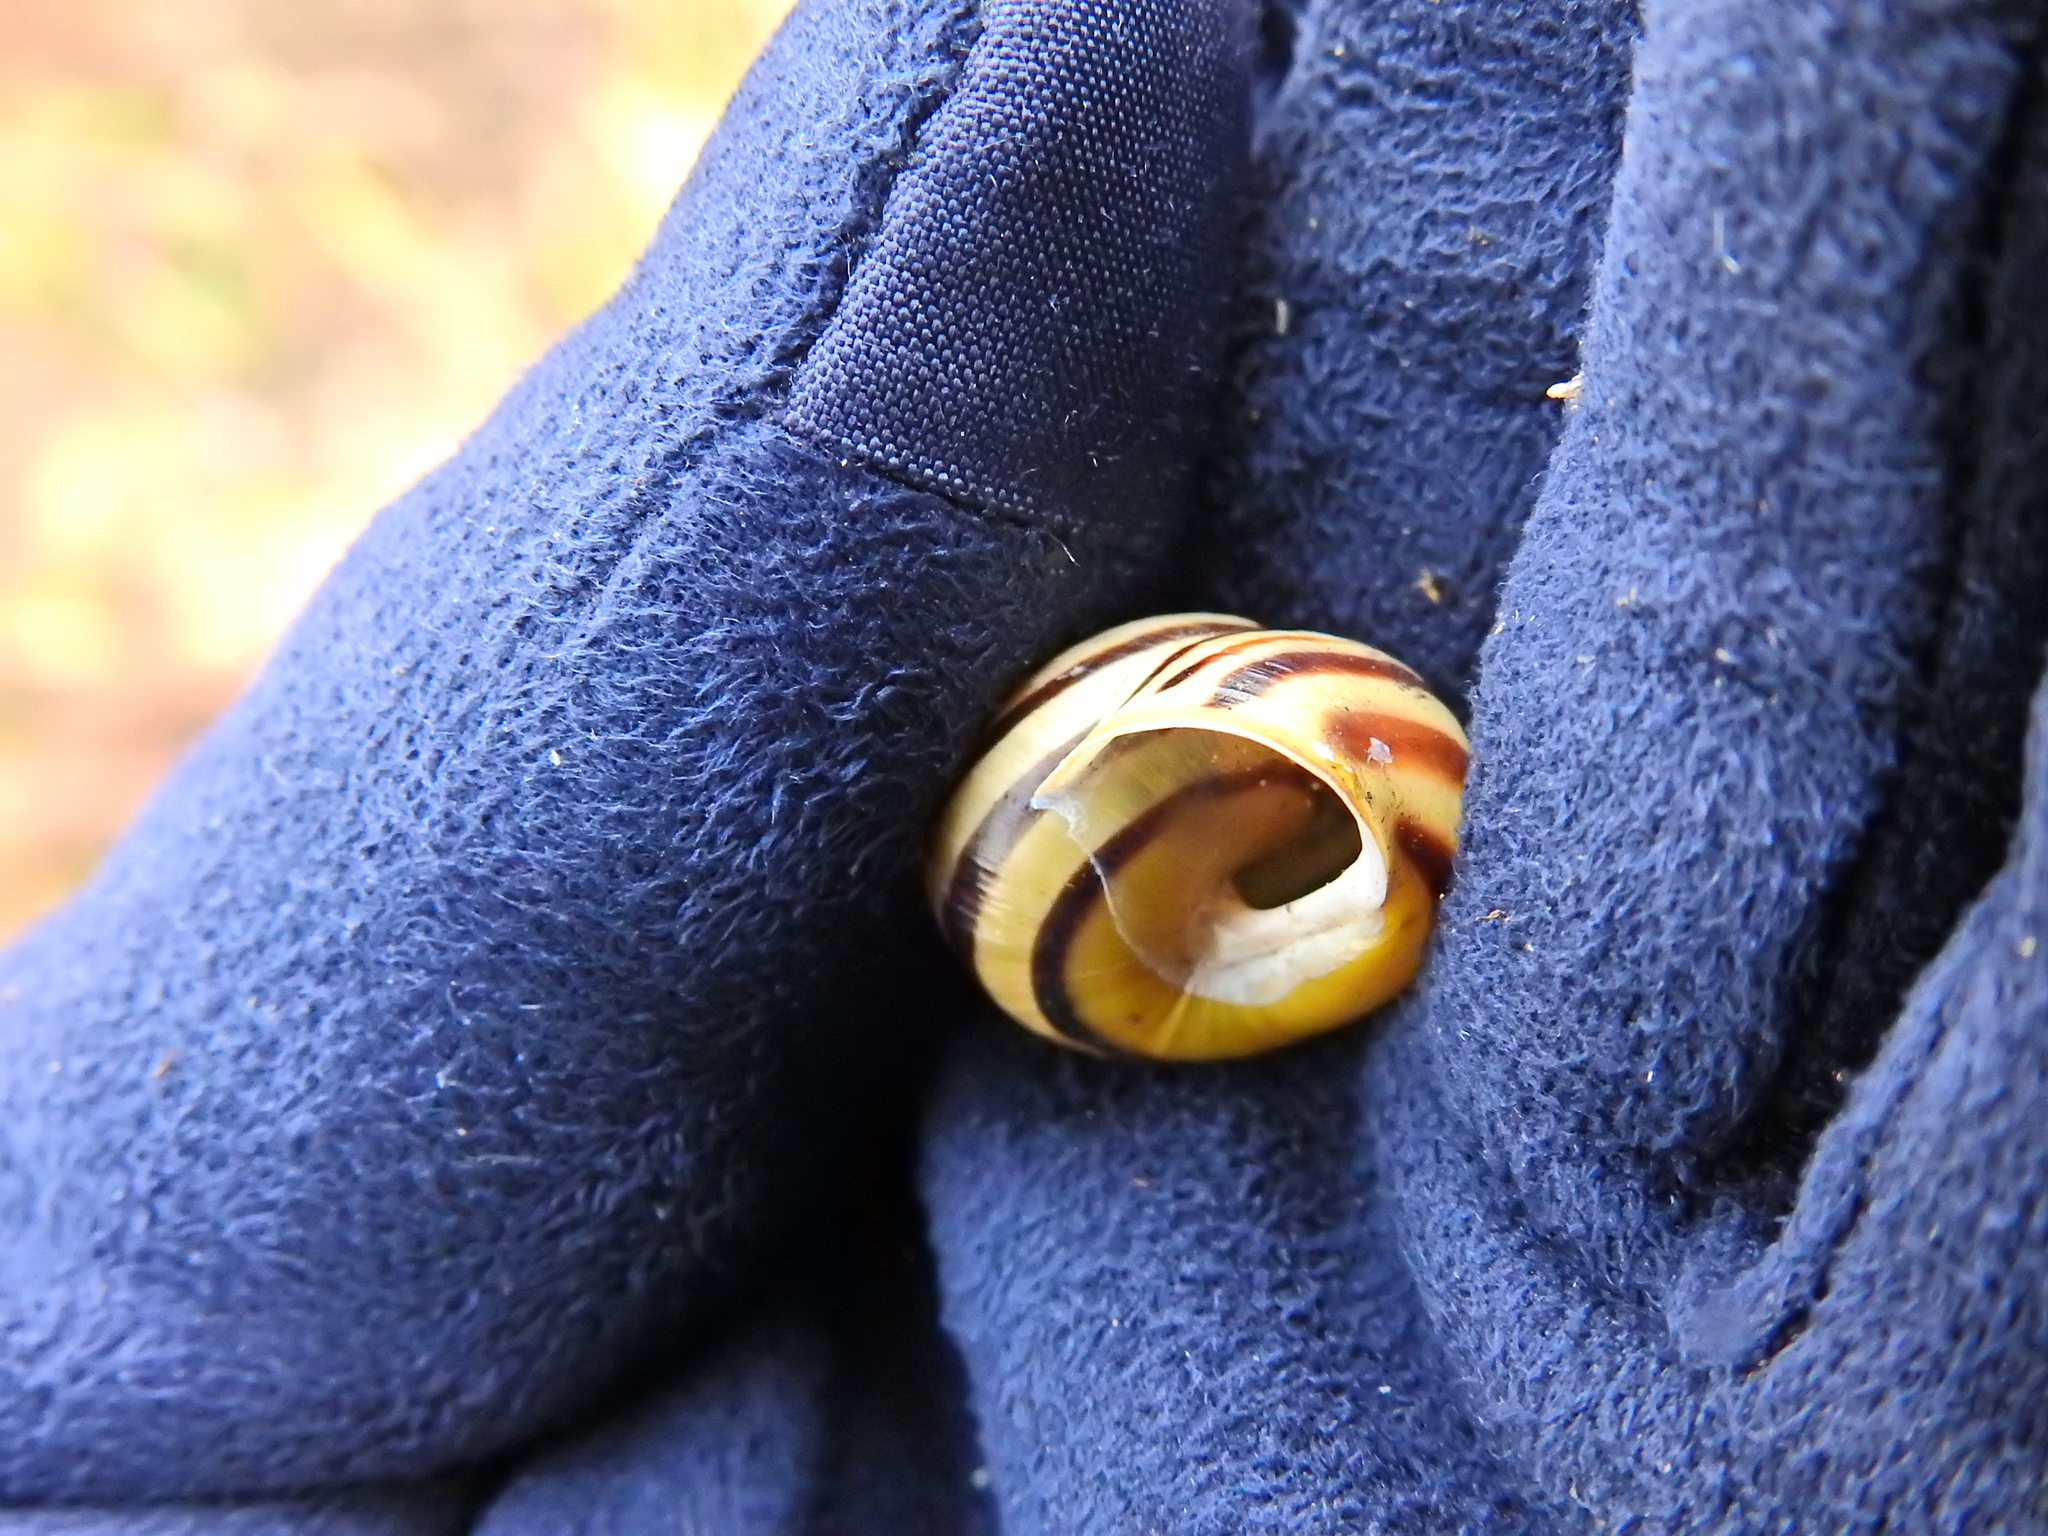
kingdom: Animalia
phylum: Mollusca
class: Gastropoda
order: Stylommatophora
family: Helicidae
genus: Cepaea
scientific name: Cepaea hortensis
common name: White-lip gardensnail
